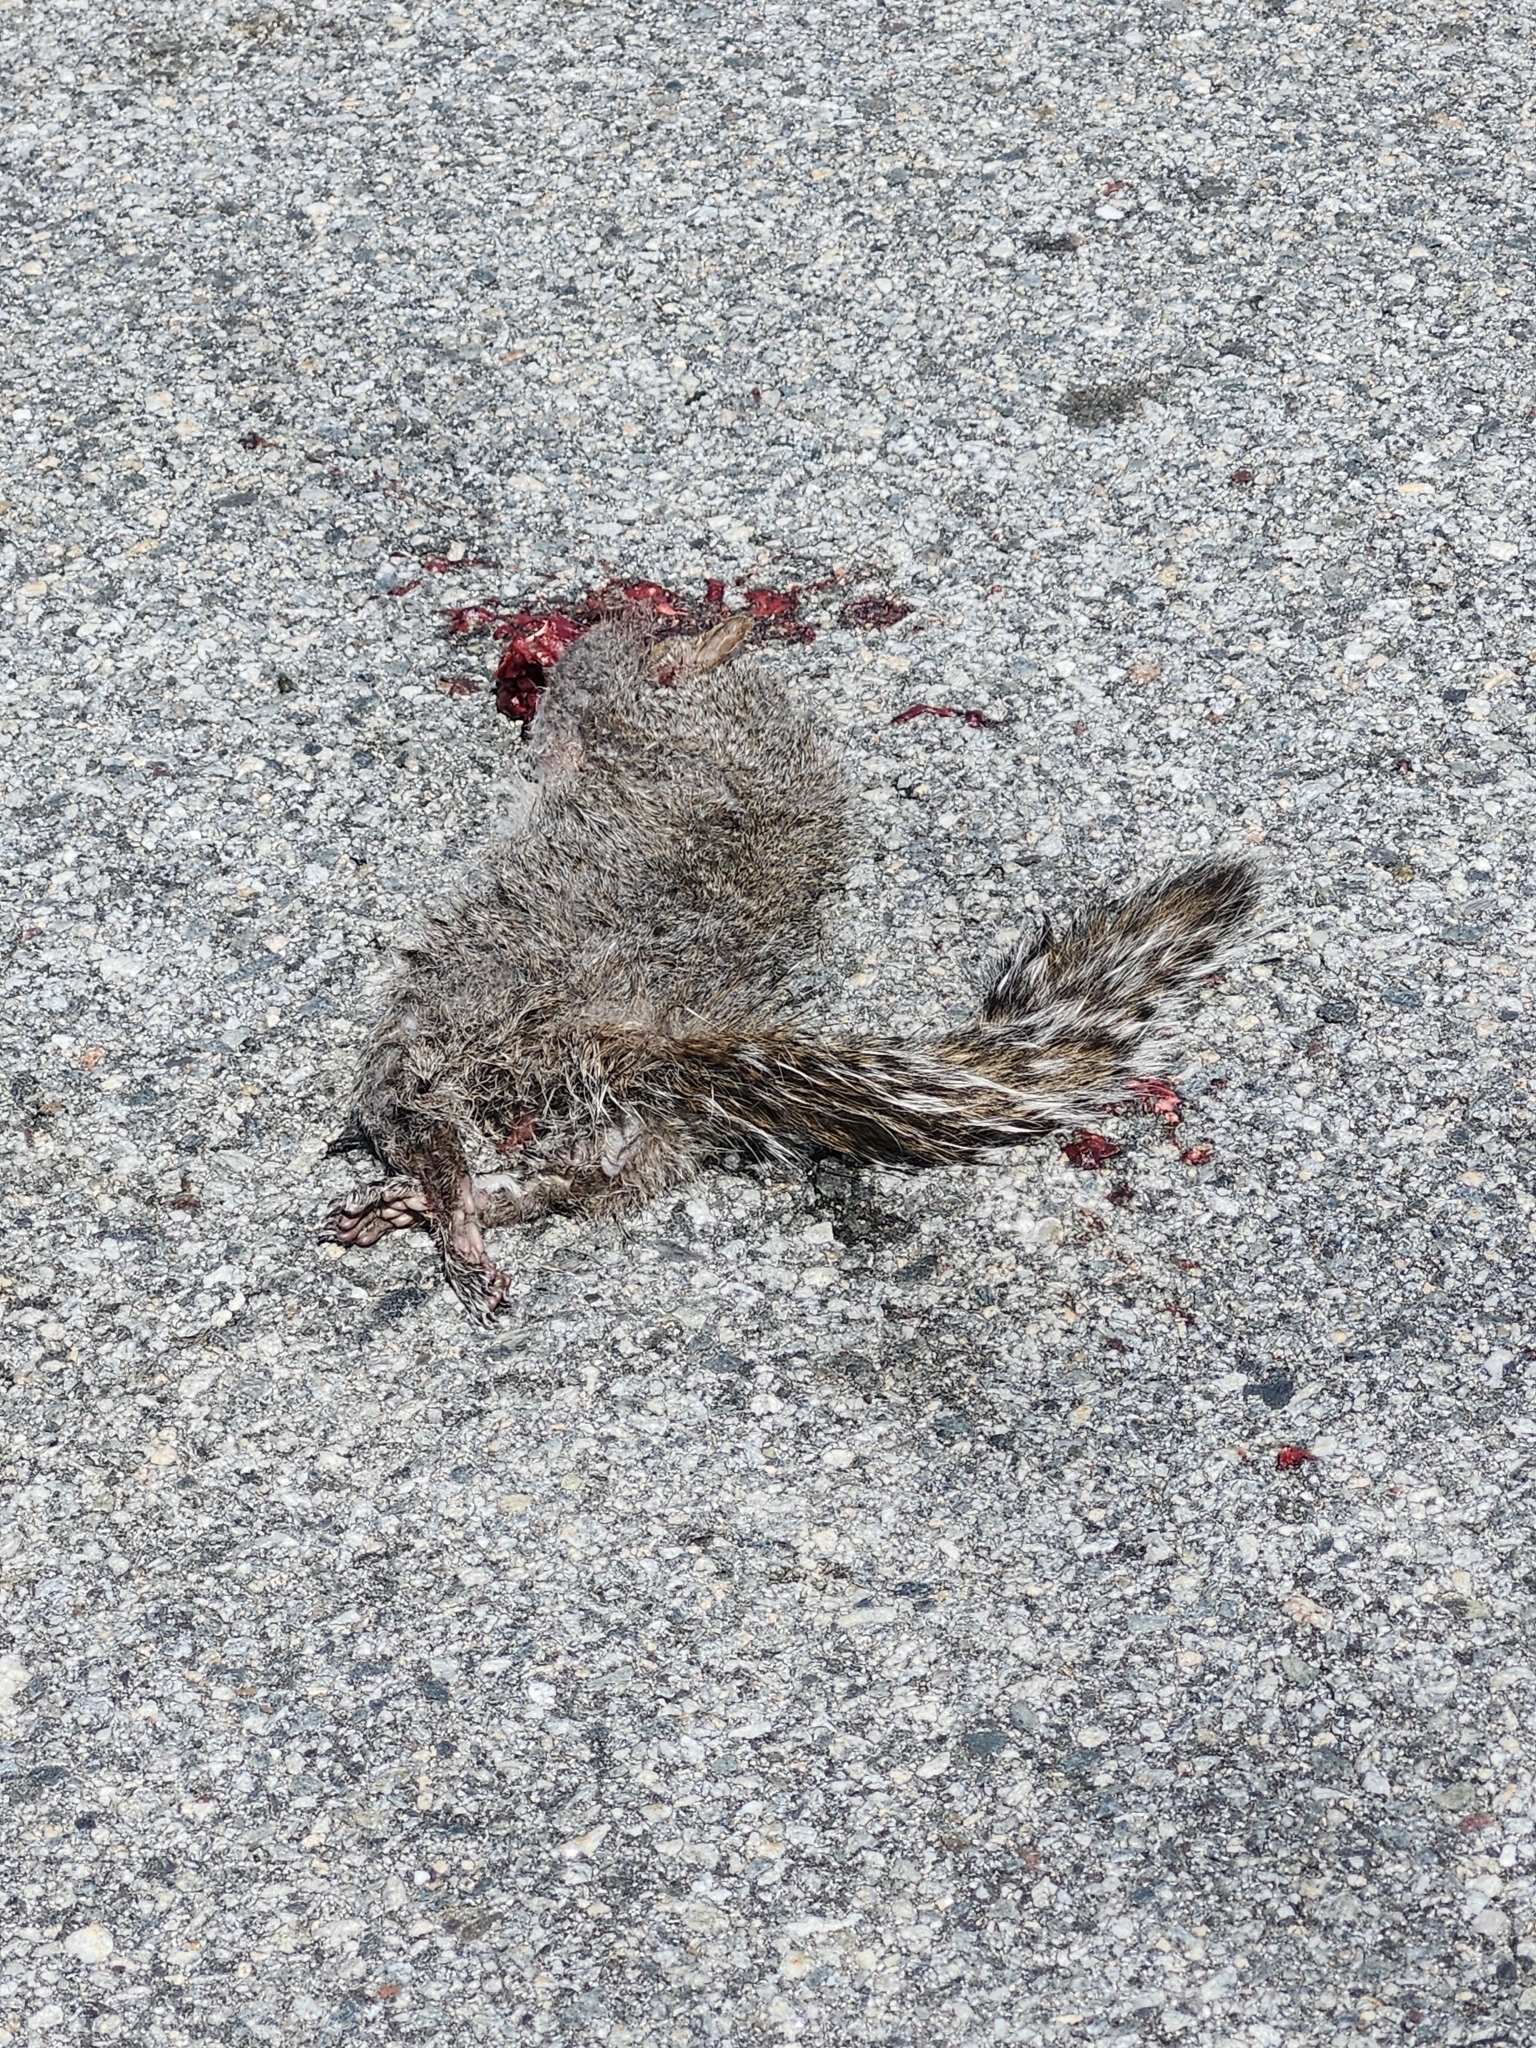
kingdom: Animalia
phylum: Chordata
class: Mammalia
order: Rodentia
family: Sciuridae
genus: Sciurus
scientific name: Sciurus carolinensis
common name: Eastern gray squirrel
